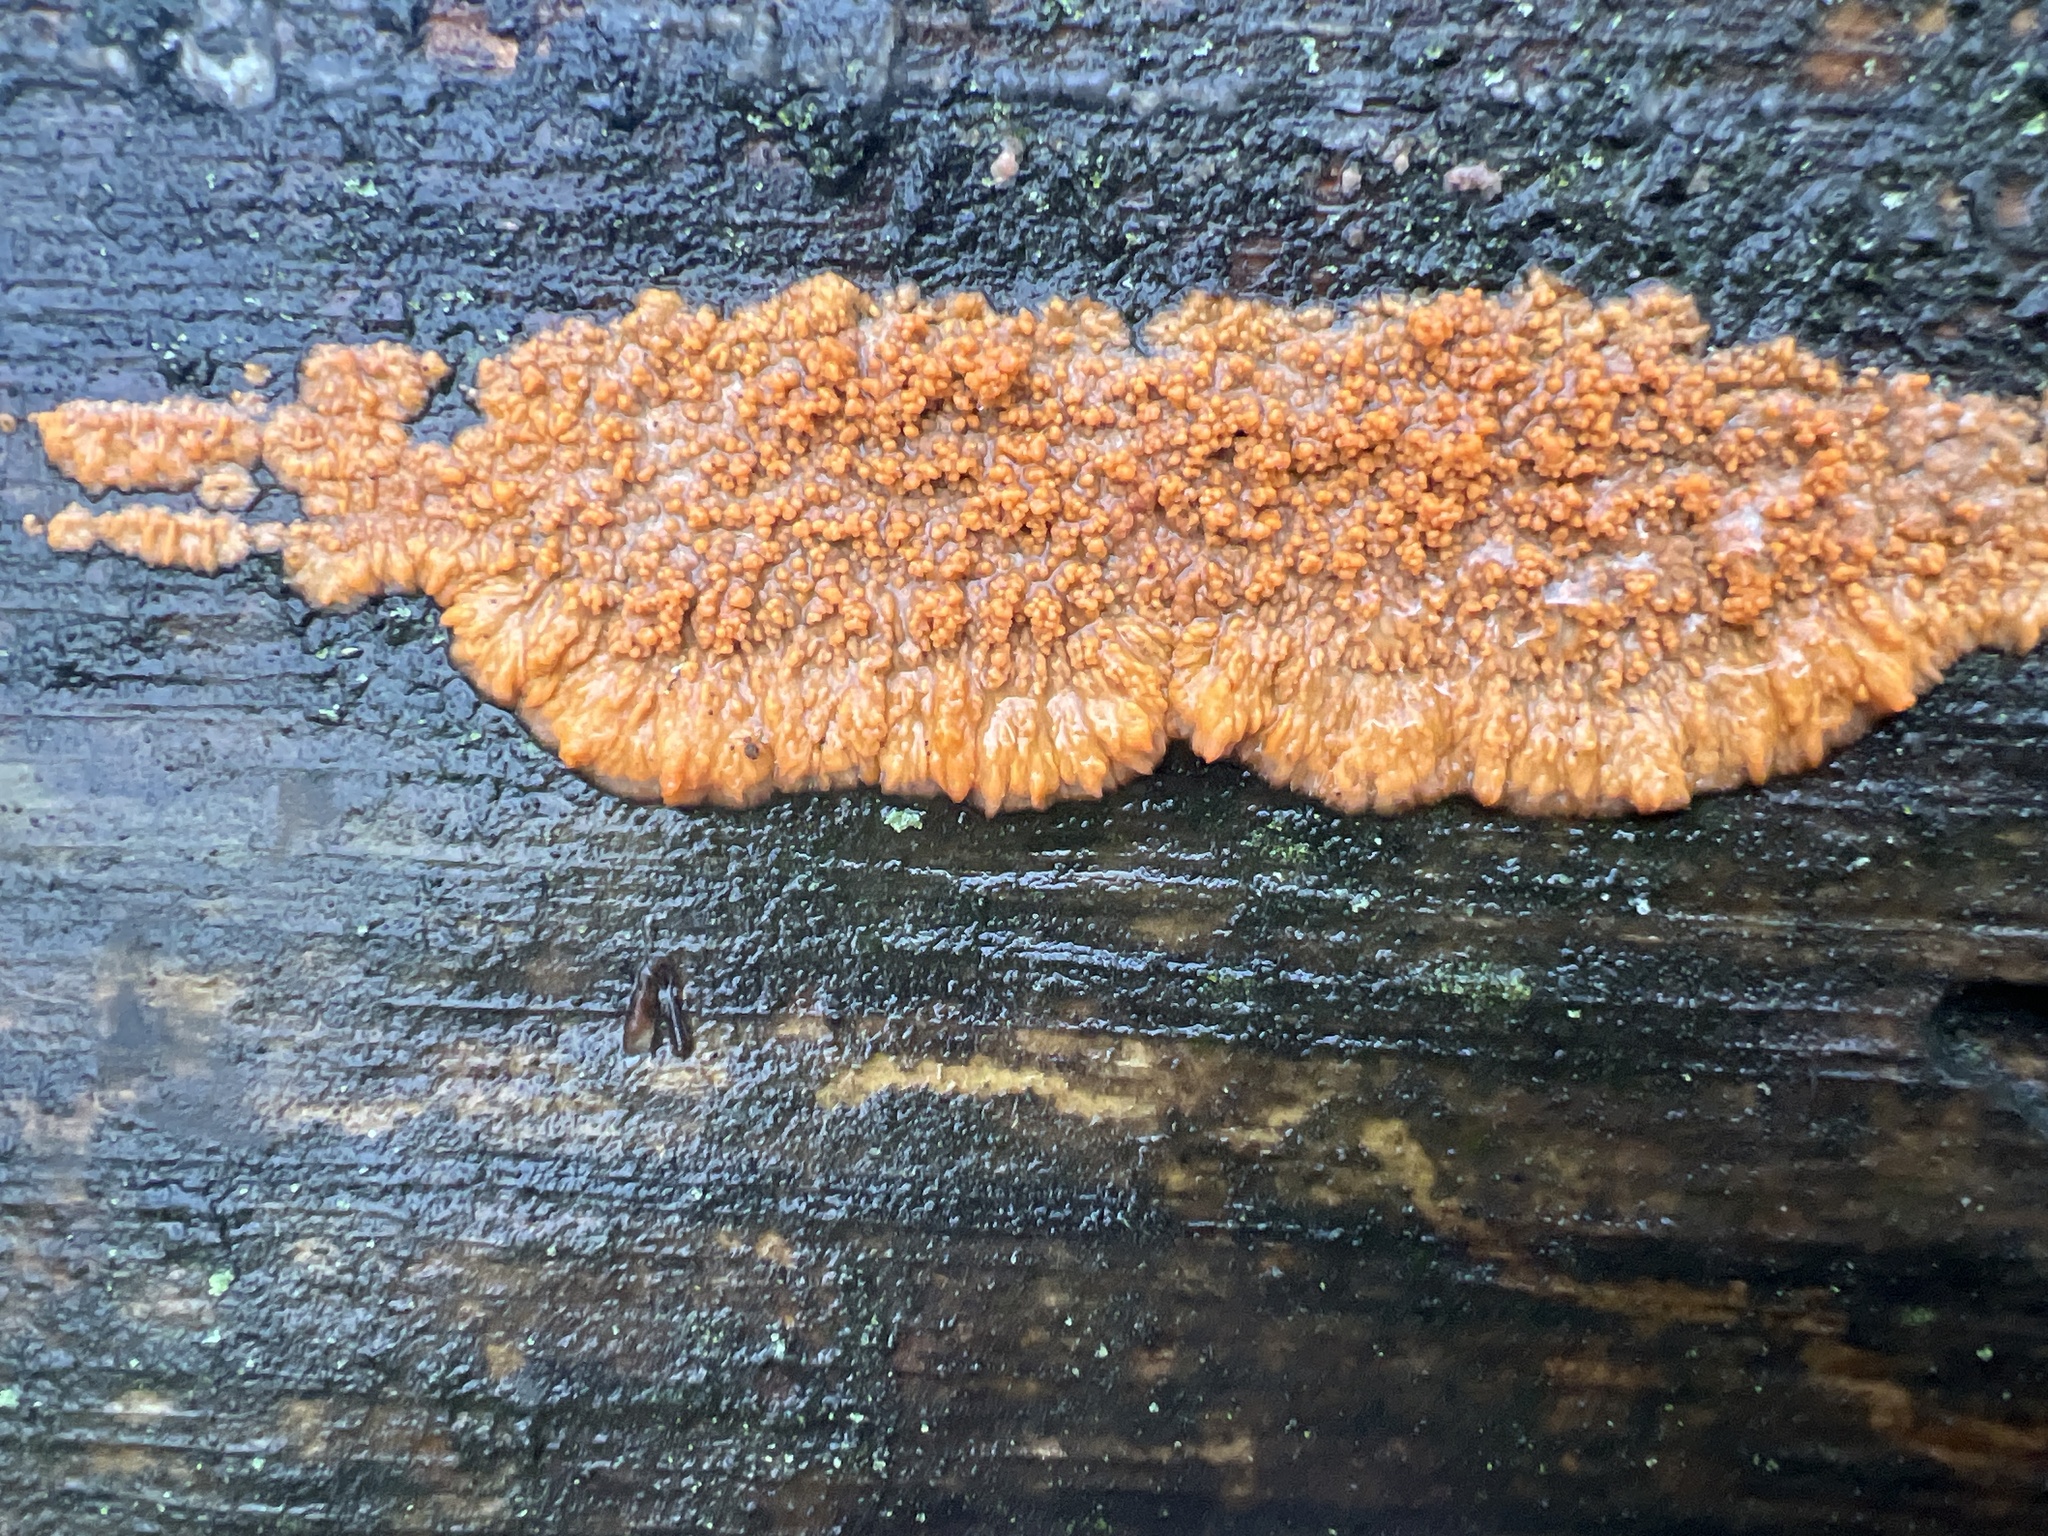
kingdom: Fungi
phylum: Basidiomycota
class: Agaricomycetes
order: Polyporales
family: Meruliaceae
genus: Phlebia
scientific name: Phlebia radiata
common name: Wrinkled crust
